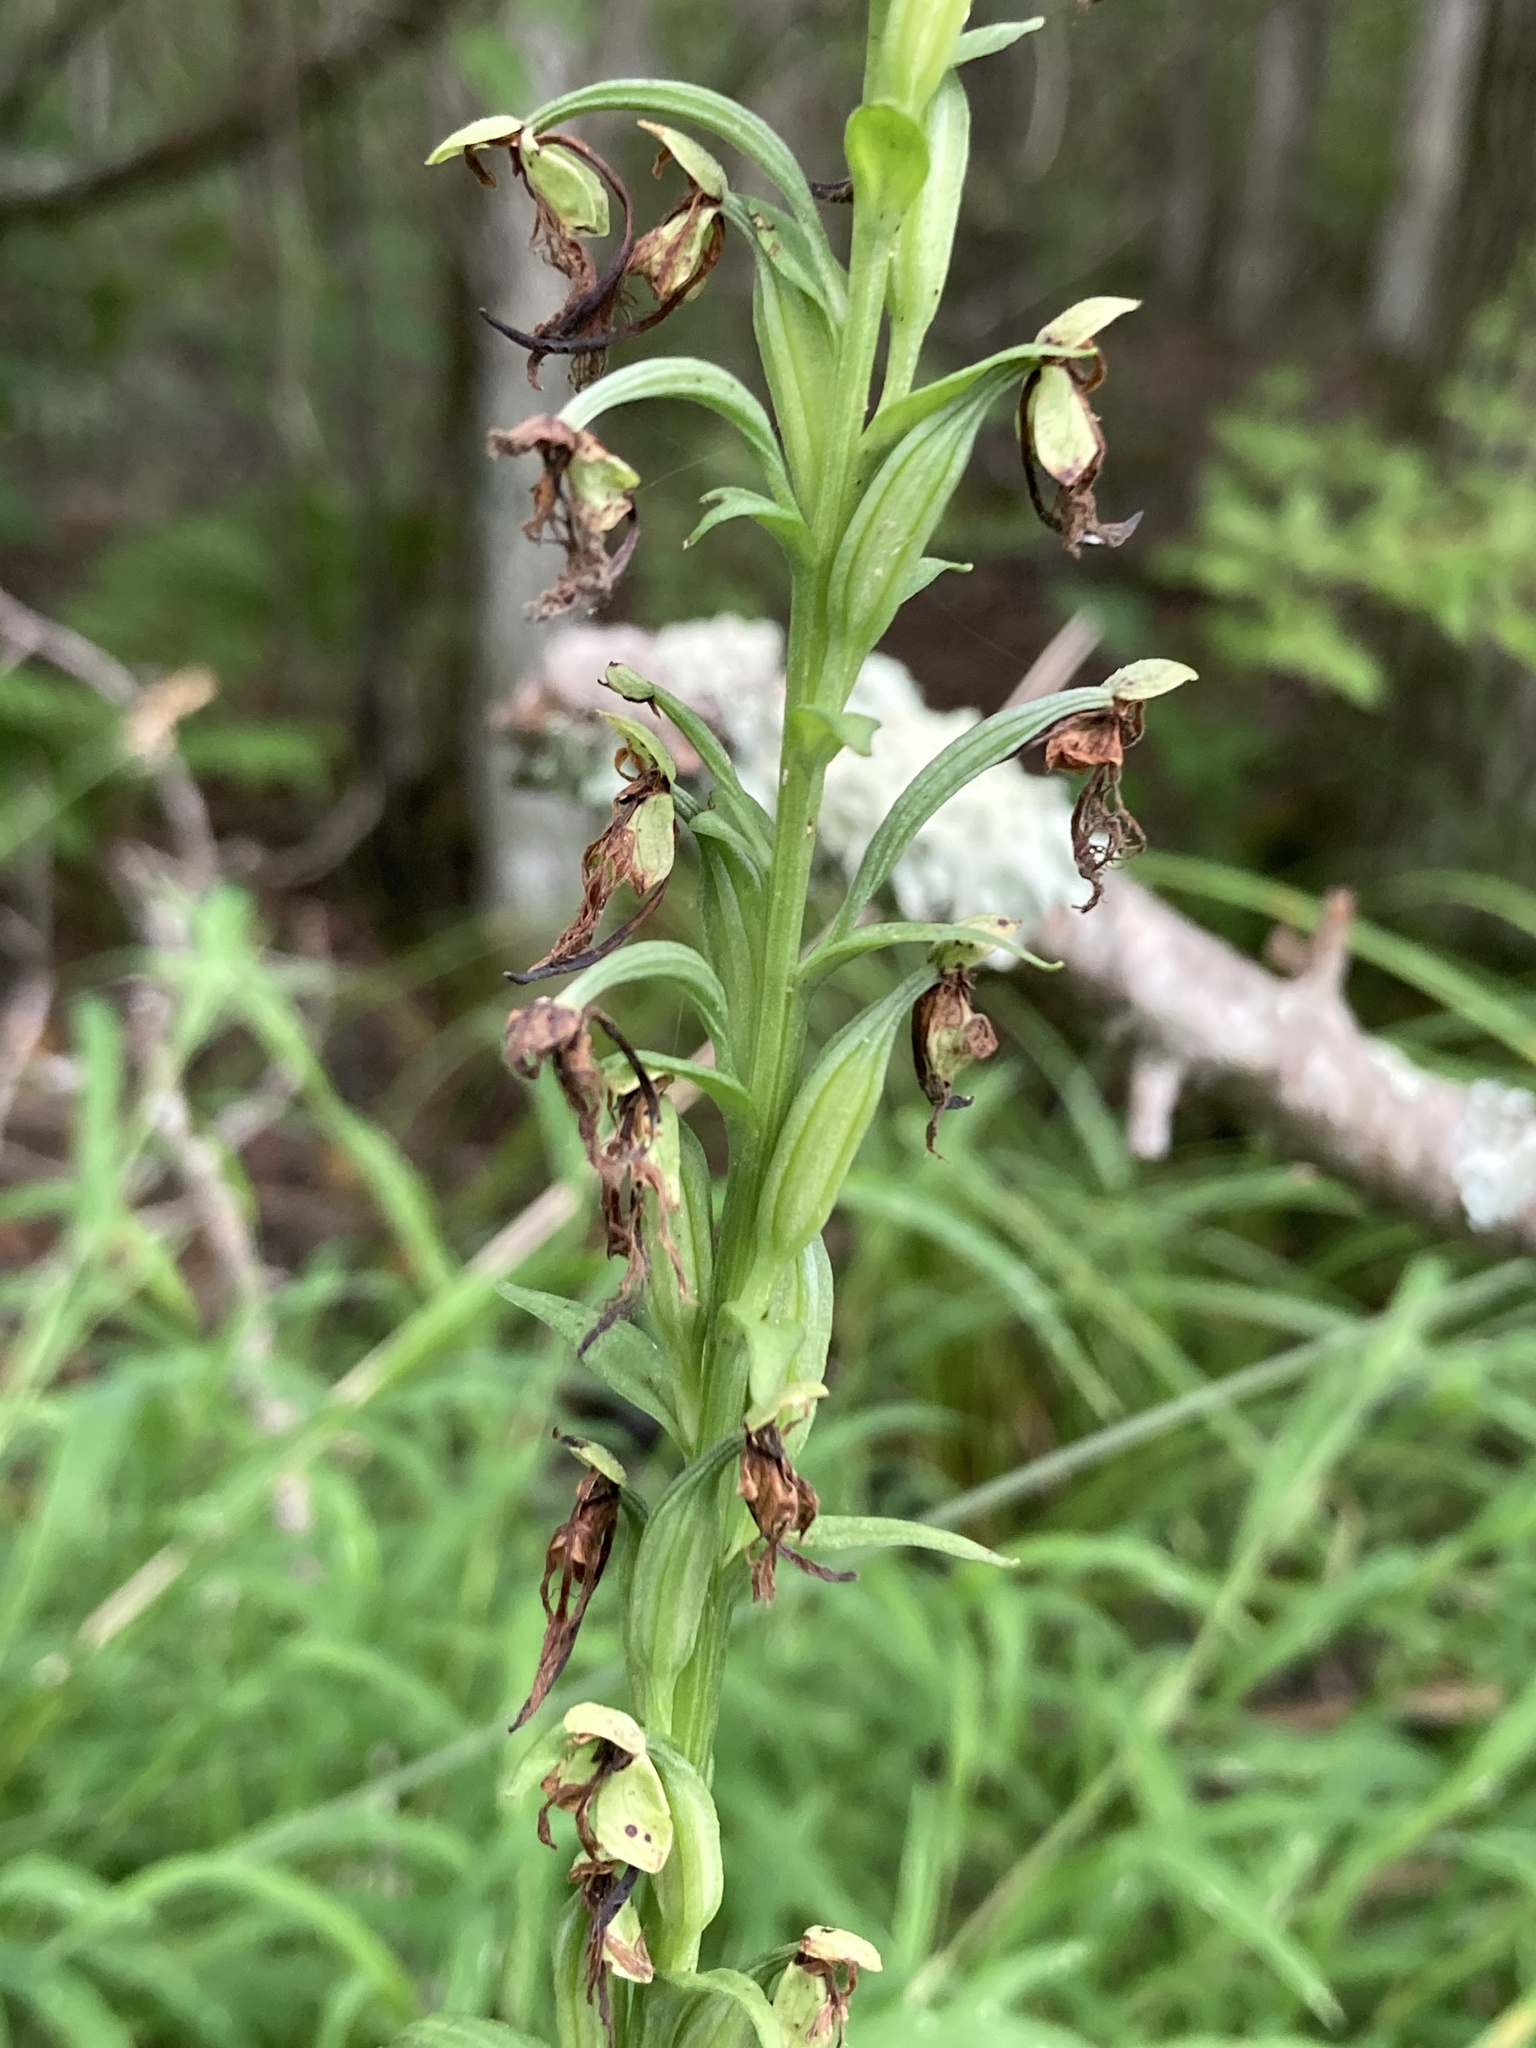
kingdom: Plantae
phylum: Tracheophyta
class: Liliopsida
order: Asparagales
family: Orchidaceae
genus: Platanthera
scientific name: Platanthera lacera
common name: Green fringed orchid
